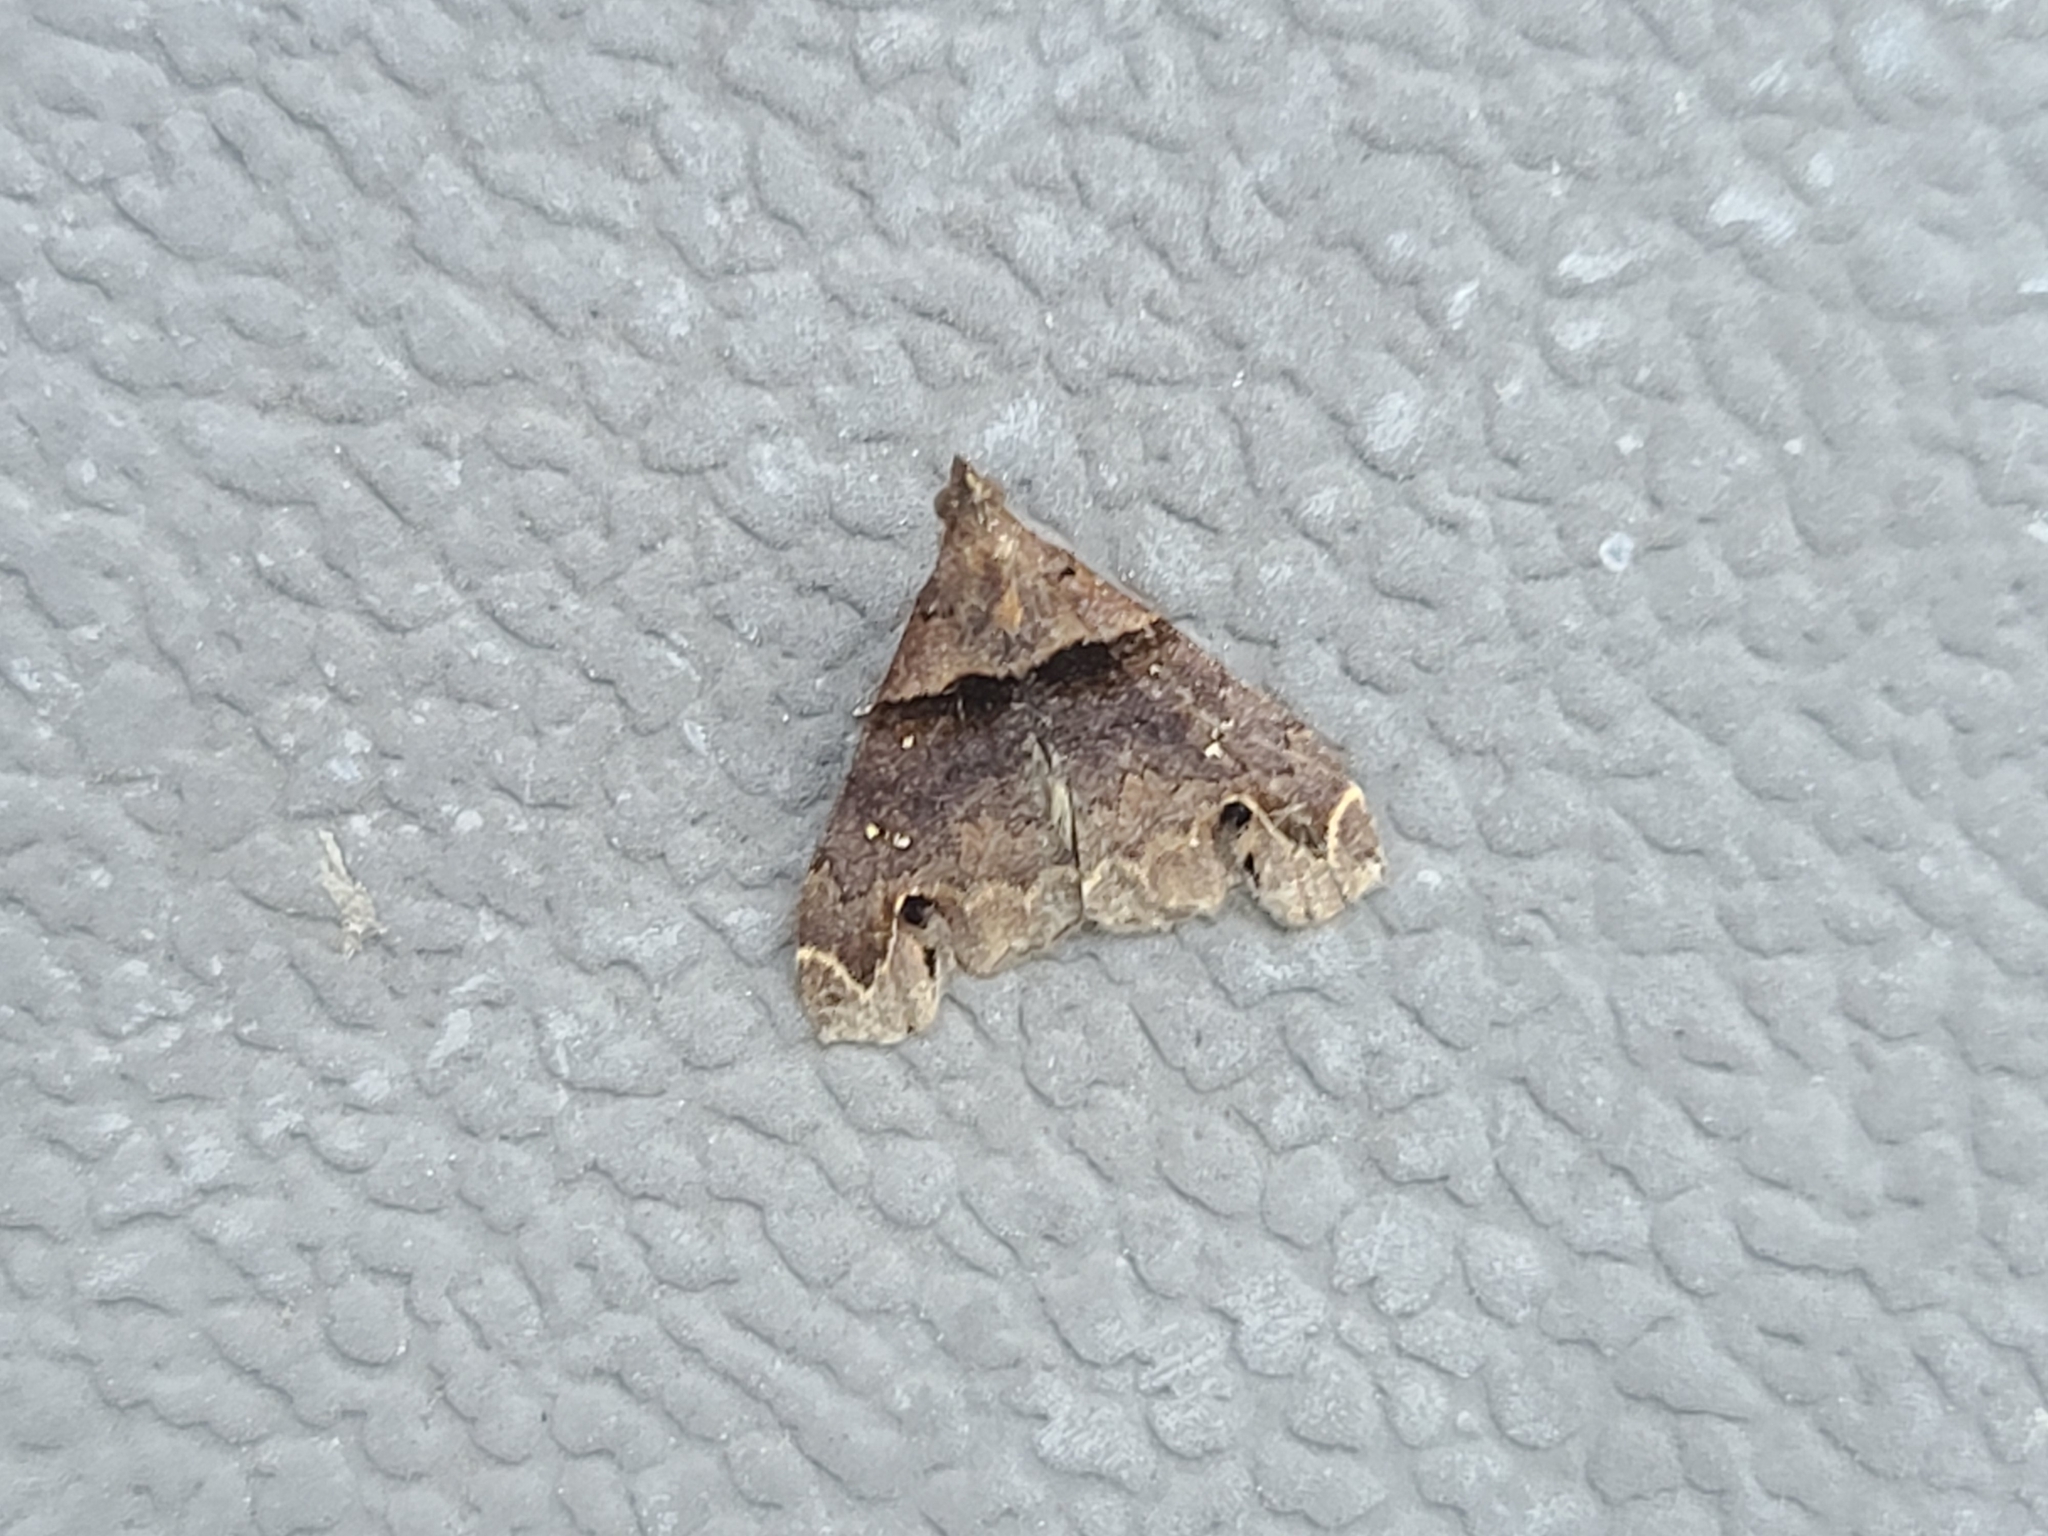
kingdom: Animalia
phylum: Arthropoda
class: Insecta
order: Lepidoptera
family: Erebidae
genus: Lascoria
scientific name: Lascoria ambigualis
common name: Ambiguous moth
